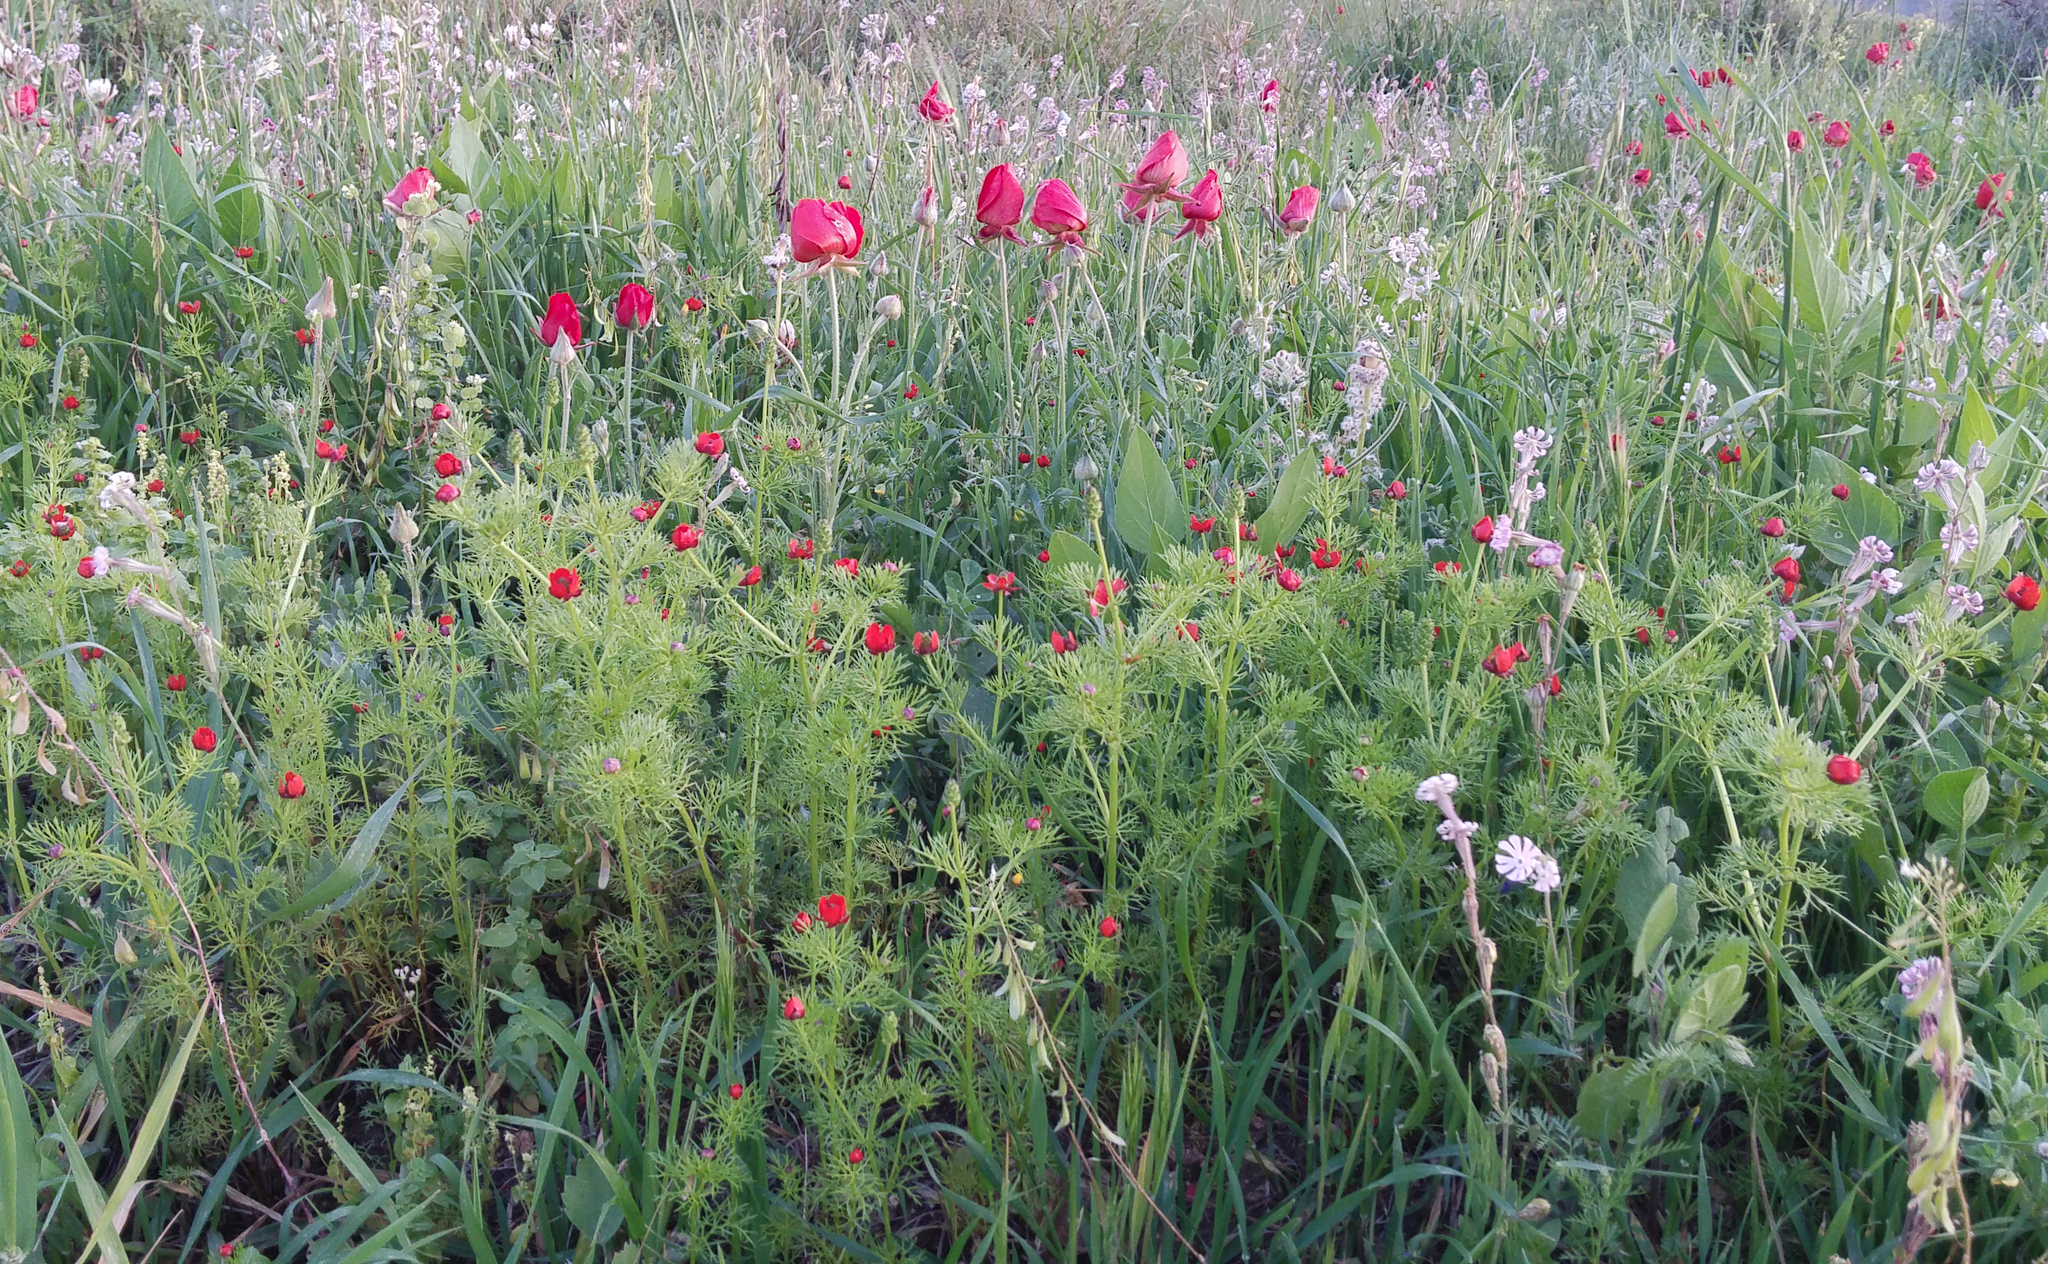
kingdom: Plantae
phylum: Tracheophyta
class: Magnoliopsida
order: Ranunculales
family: Ranunculaceae
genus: Ranunculus
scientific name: Ranunculus asiaticus
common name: Persian buttercup
